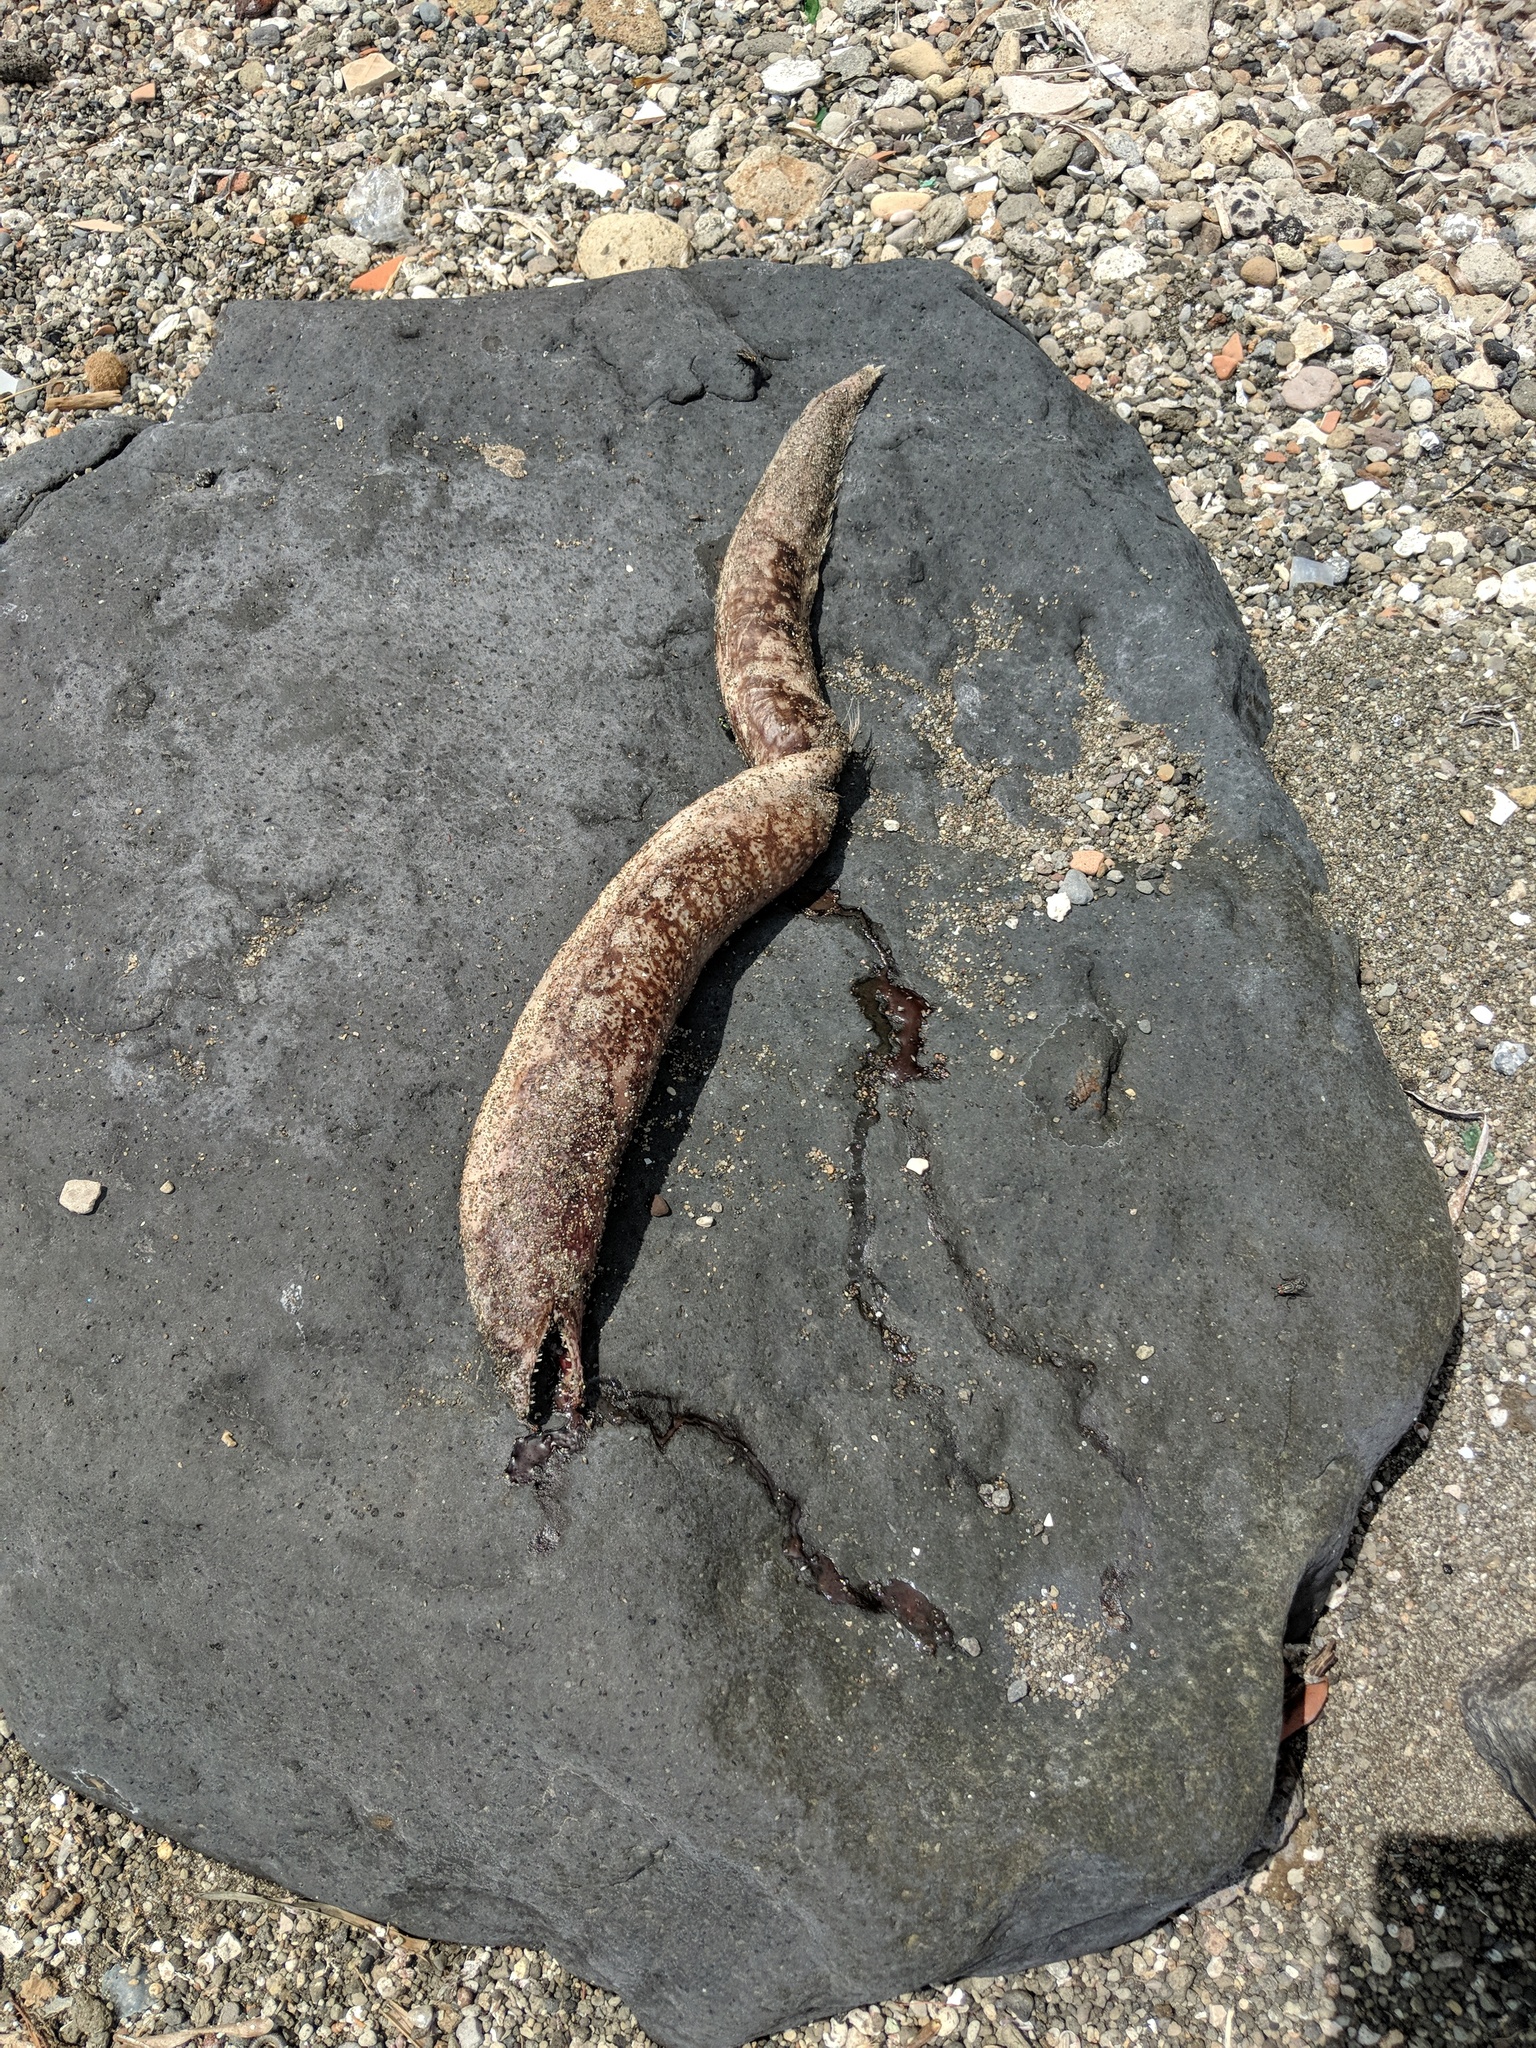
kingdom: Animalia
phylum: Chordata
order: Anguilliformes
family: Muraenidae
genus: Muraena
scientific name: Muraena helena
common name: Mediterranean moray
